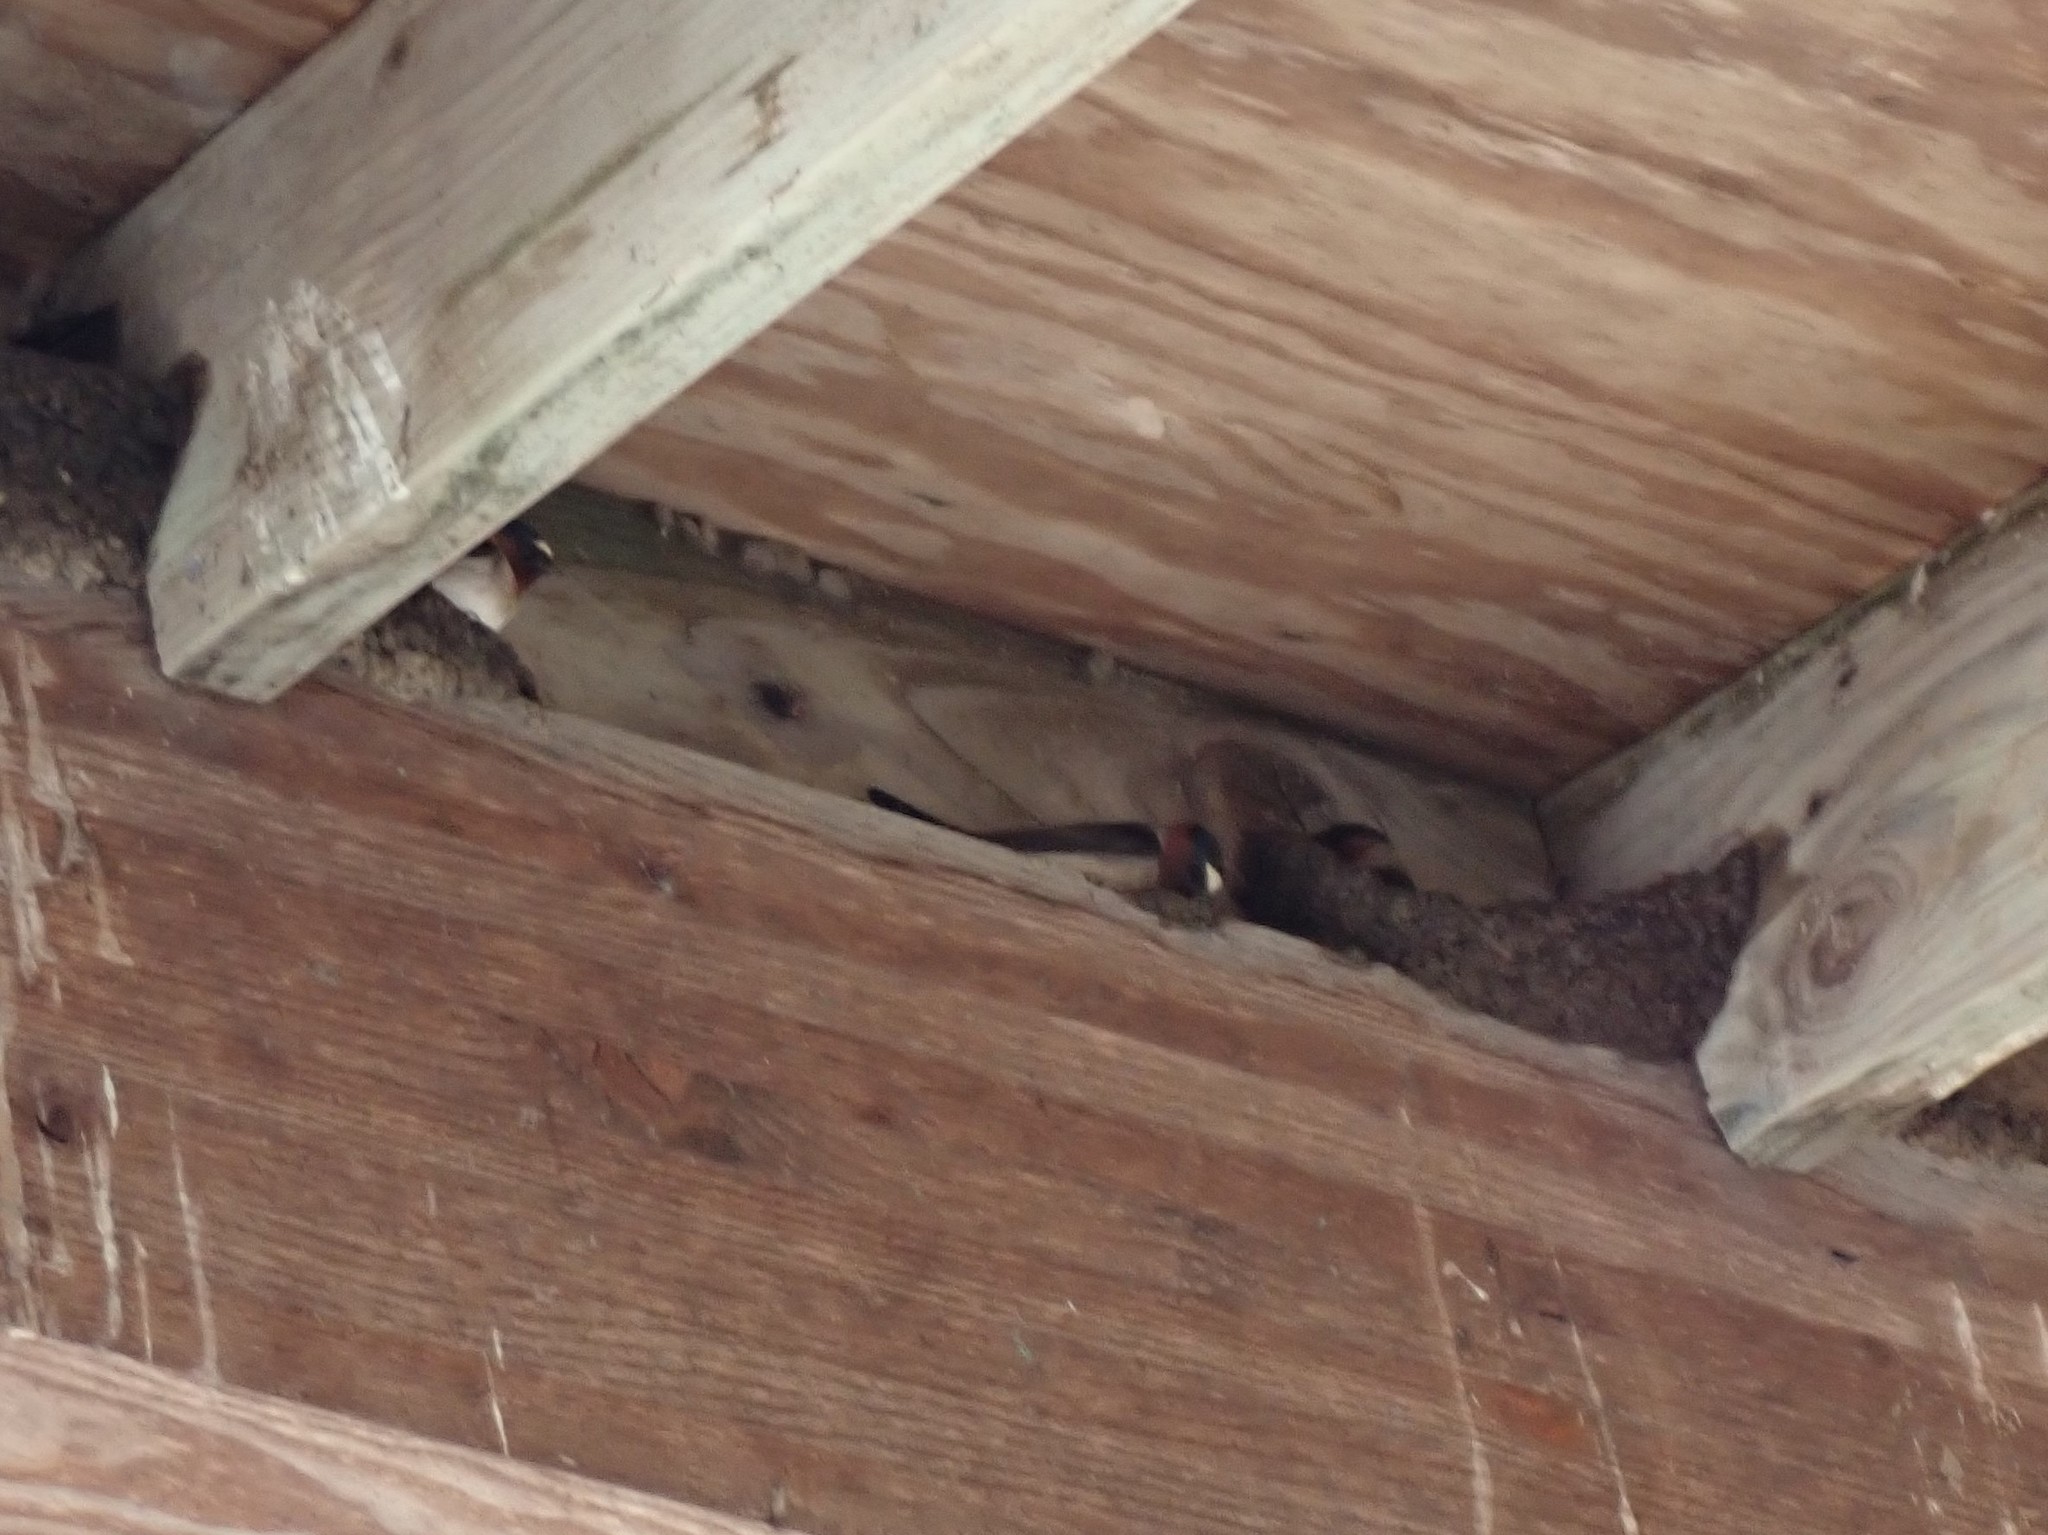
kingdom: Animalia
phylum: Chordata
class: Aves
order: Passeriformes
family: Hirundinidae
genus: Petrochelidon
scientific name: Petrochelidon pyrrhonota
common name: American cliff swallow
